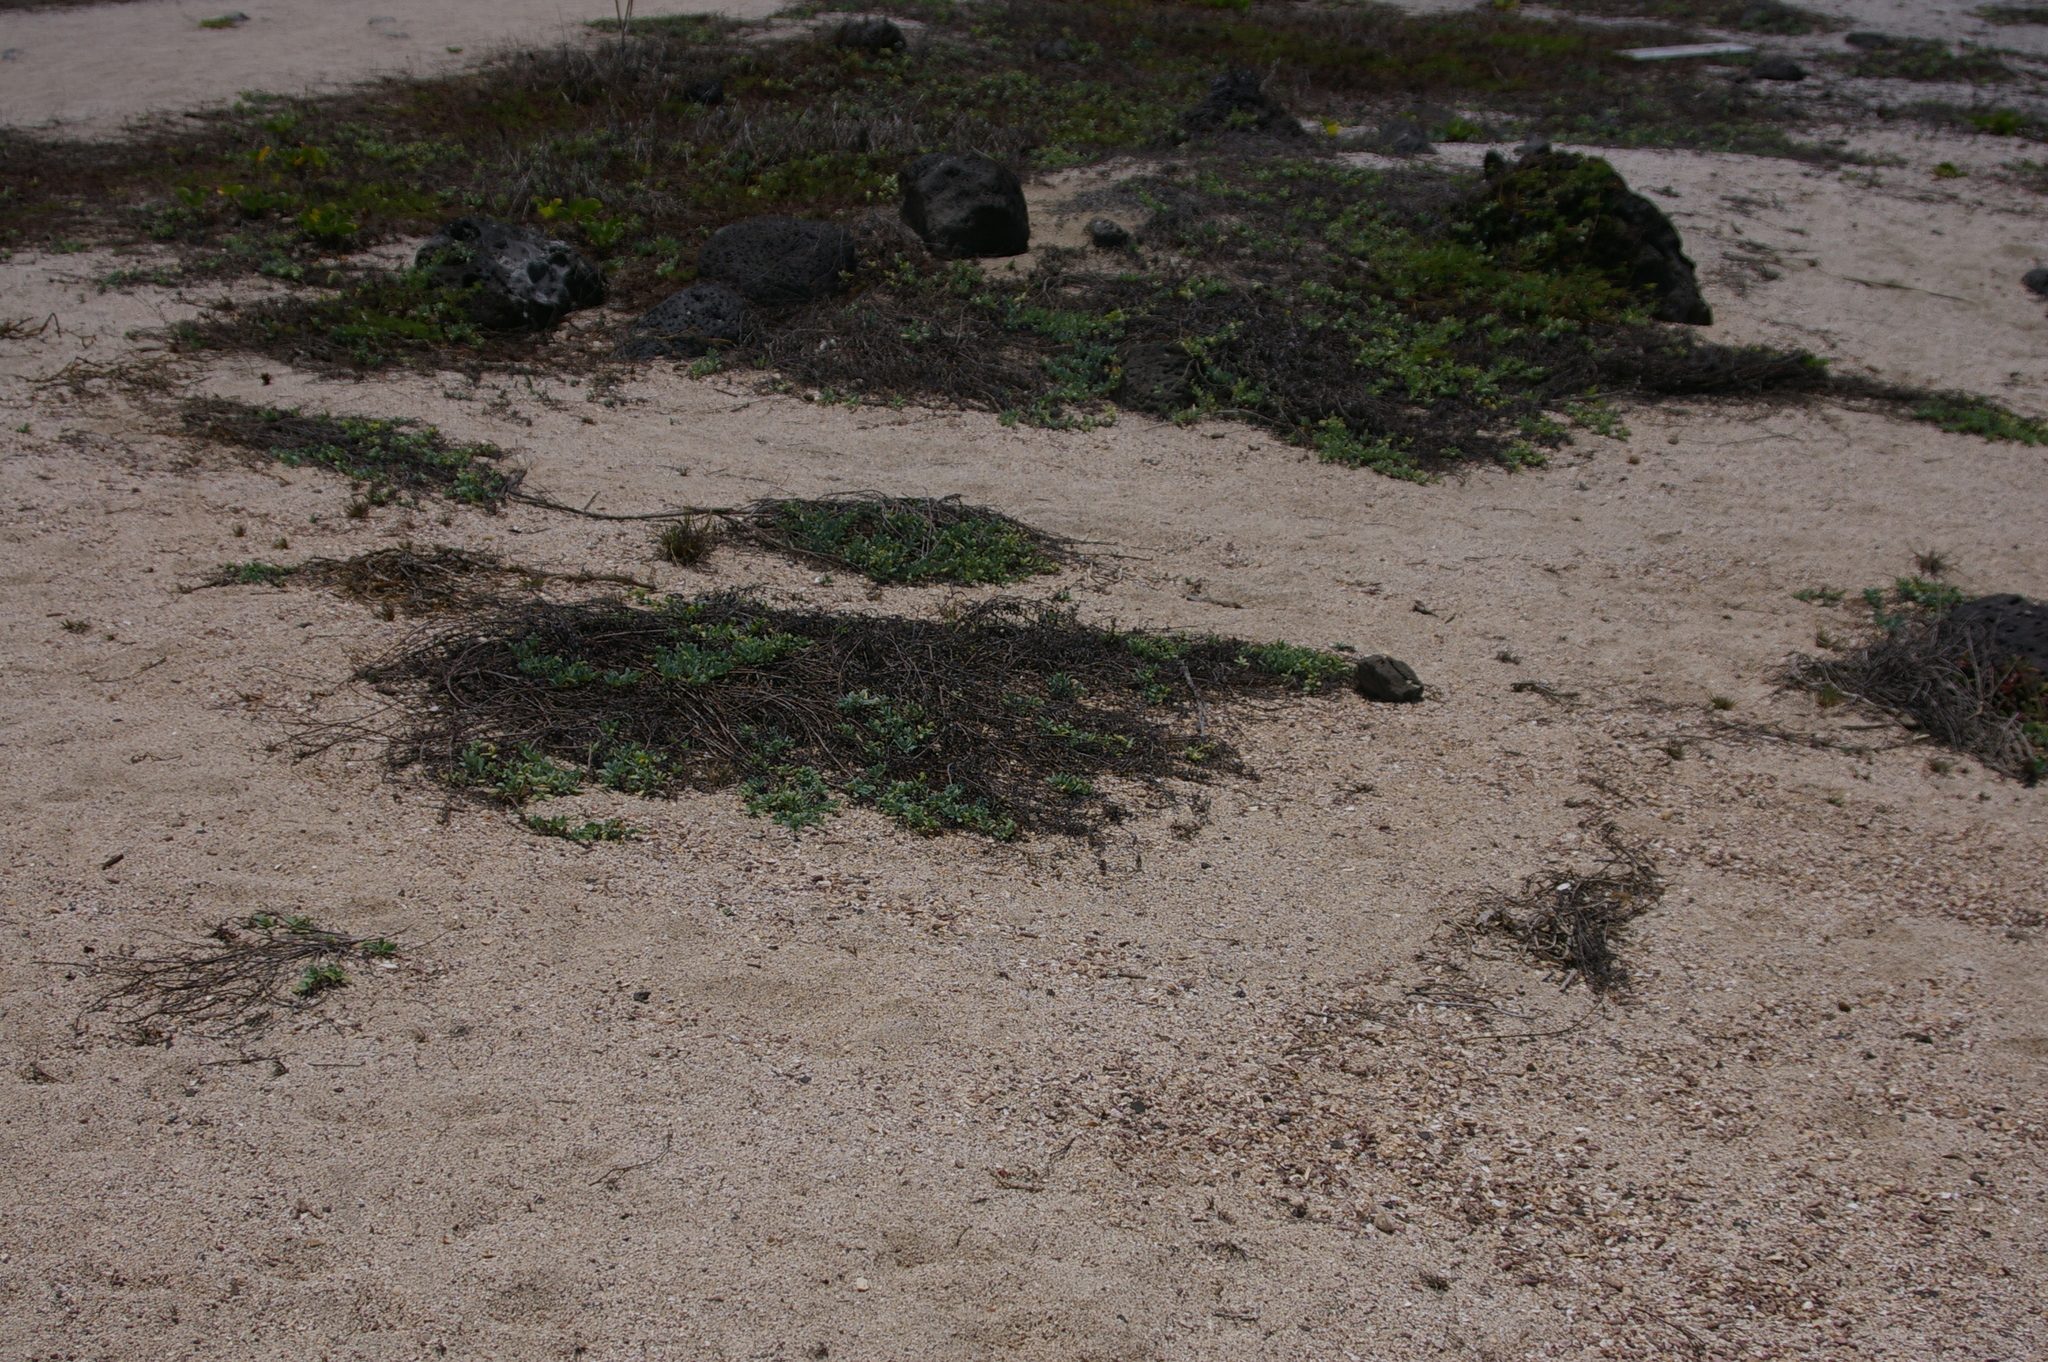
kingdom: Plantae
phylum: Tracheophyta
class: Magnoliopsida
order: Boraginales
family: Heliotropiaceae
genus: Heliotropium
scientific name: Heliotropium curassavicum
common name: Seaside heliotrope
